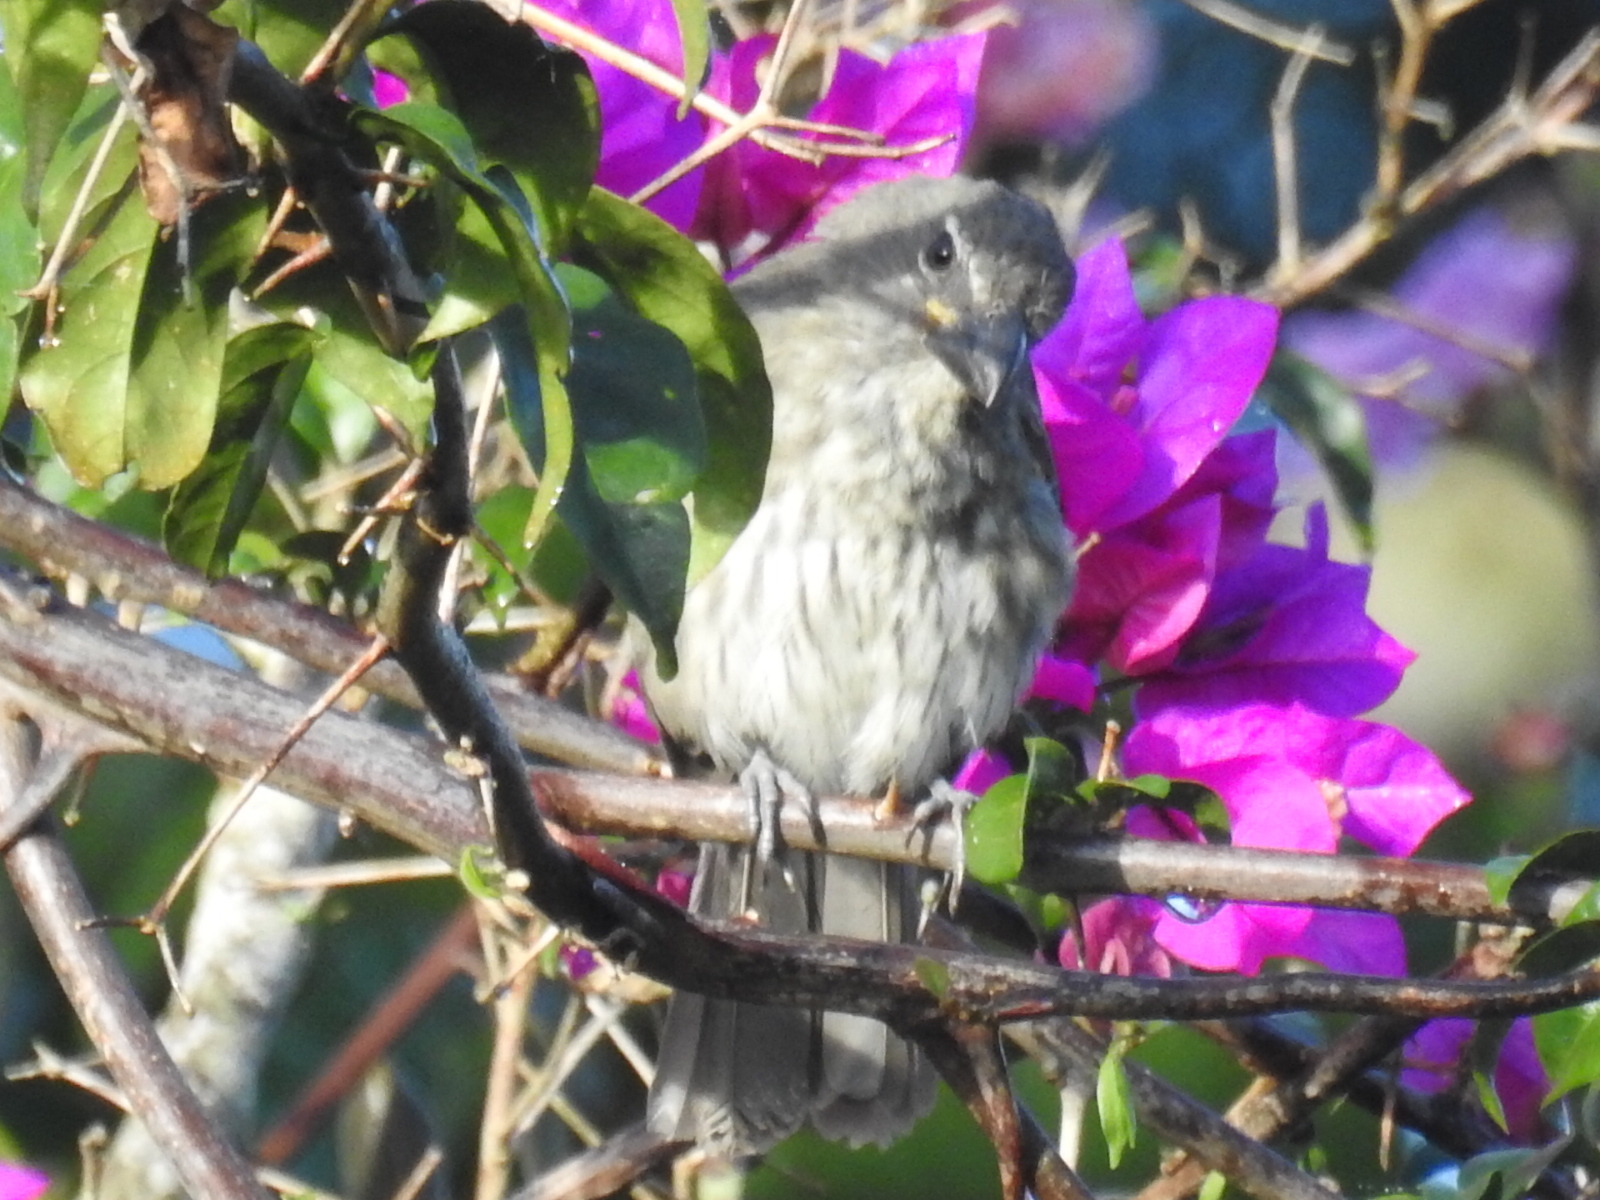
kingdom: Animalia
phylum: Chordata
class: Aves
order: Passeriformes
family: Thraupidae
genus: Saltator
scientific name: Saltator striatipectus
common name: Streaked saltator
